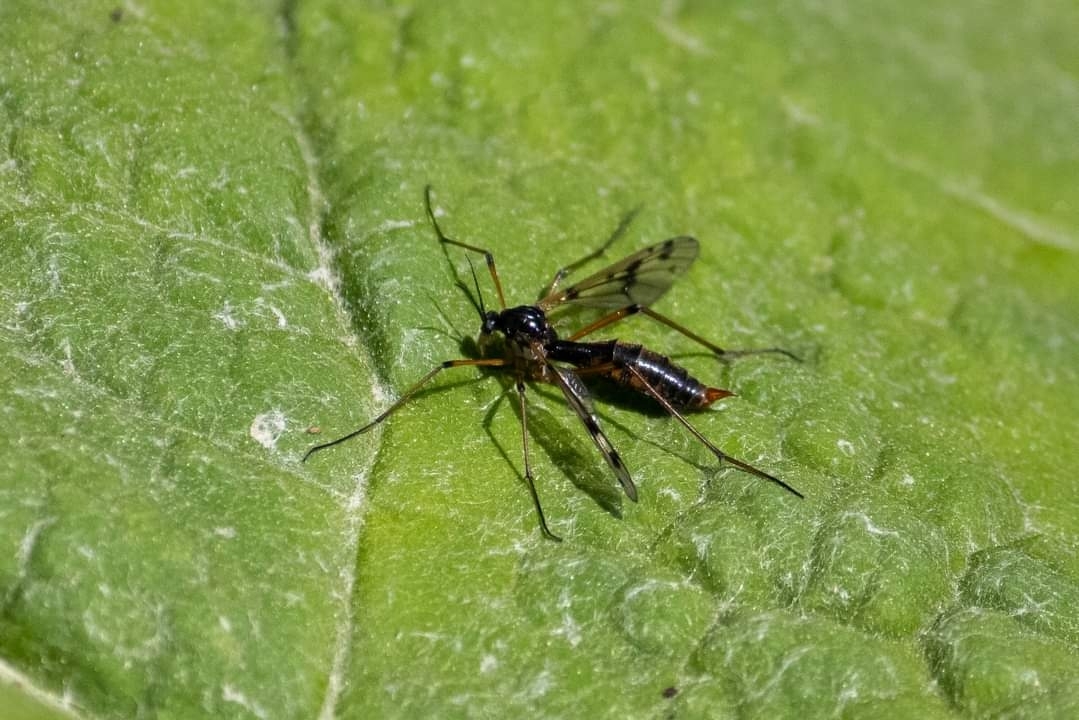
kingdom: Animalia
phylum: Arthropoda
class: Insecta
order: Diptera
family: Ptychopteridae
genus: Ptychoptera
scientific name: Ptychoptera contaminata
